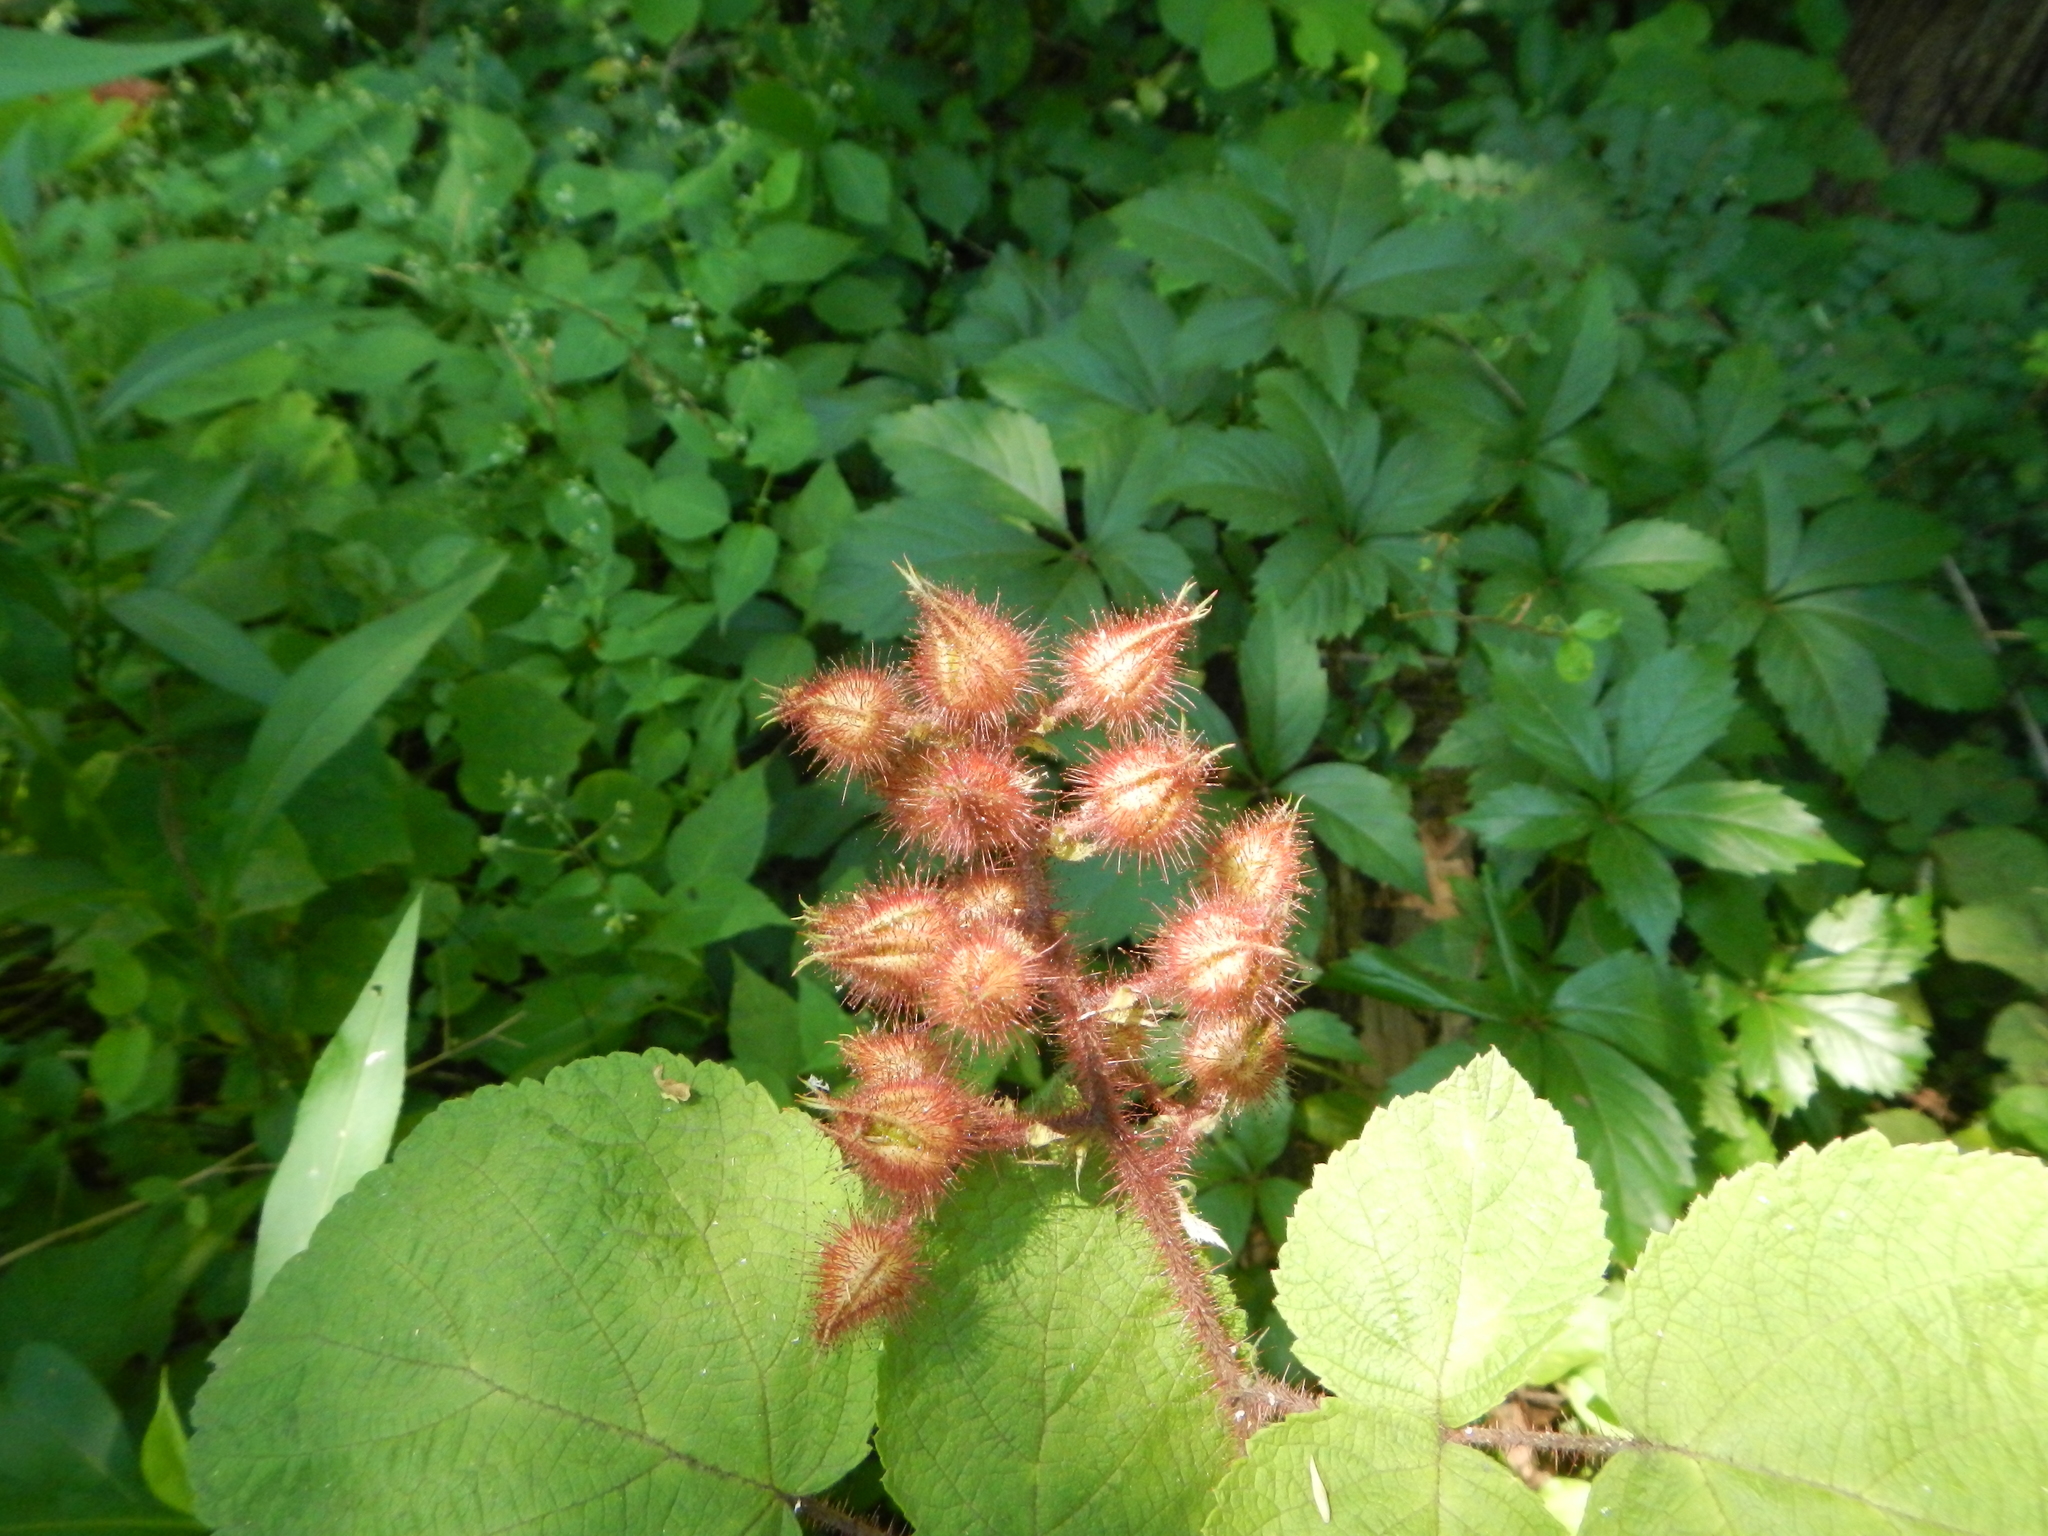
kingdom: Plantae
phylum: Tracheophyta
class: Magnoliopsida
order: Rosales
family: Rosaceae
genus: Rubus
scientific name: Rubus phoenicolasius
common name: Japanese wineberry
